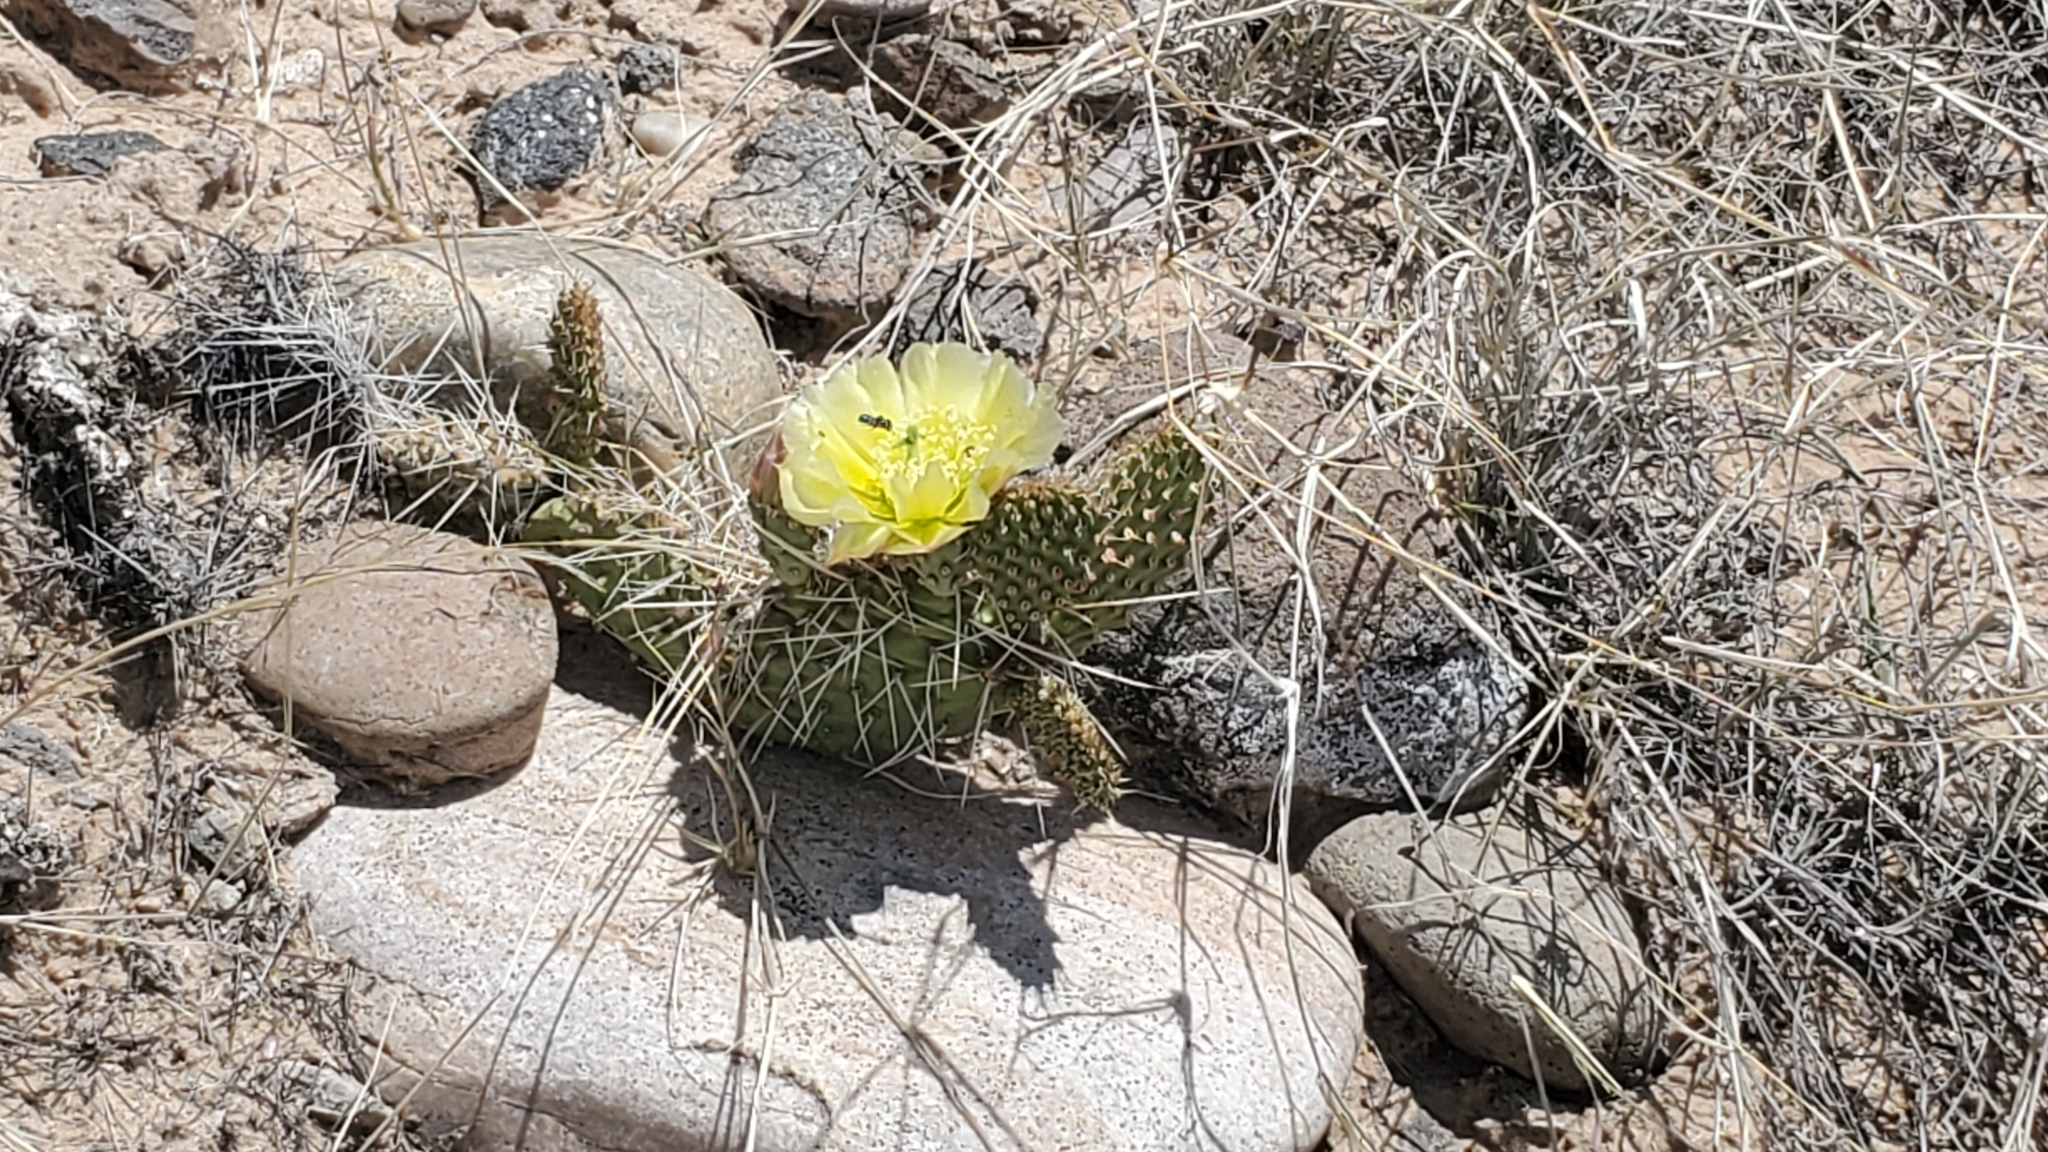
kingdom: Plantae
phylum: Tracheophyta
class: Magnoliopsida
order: Caryophyllales
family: Cactaceae
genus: Opuntia
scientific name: Opuntia polyacantha
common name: Plains prickly-pear
